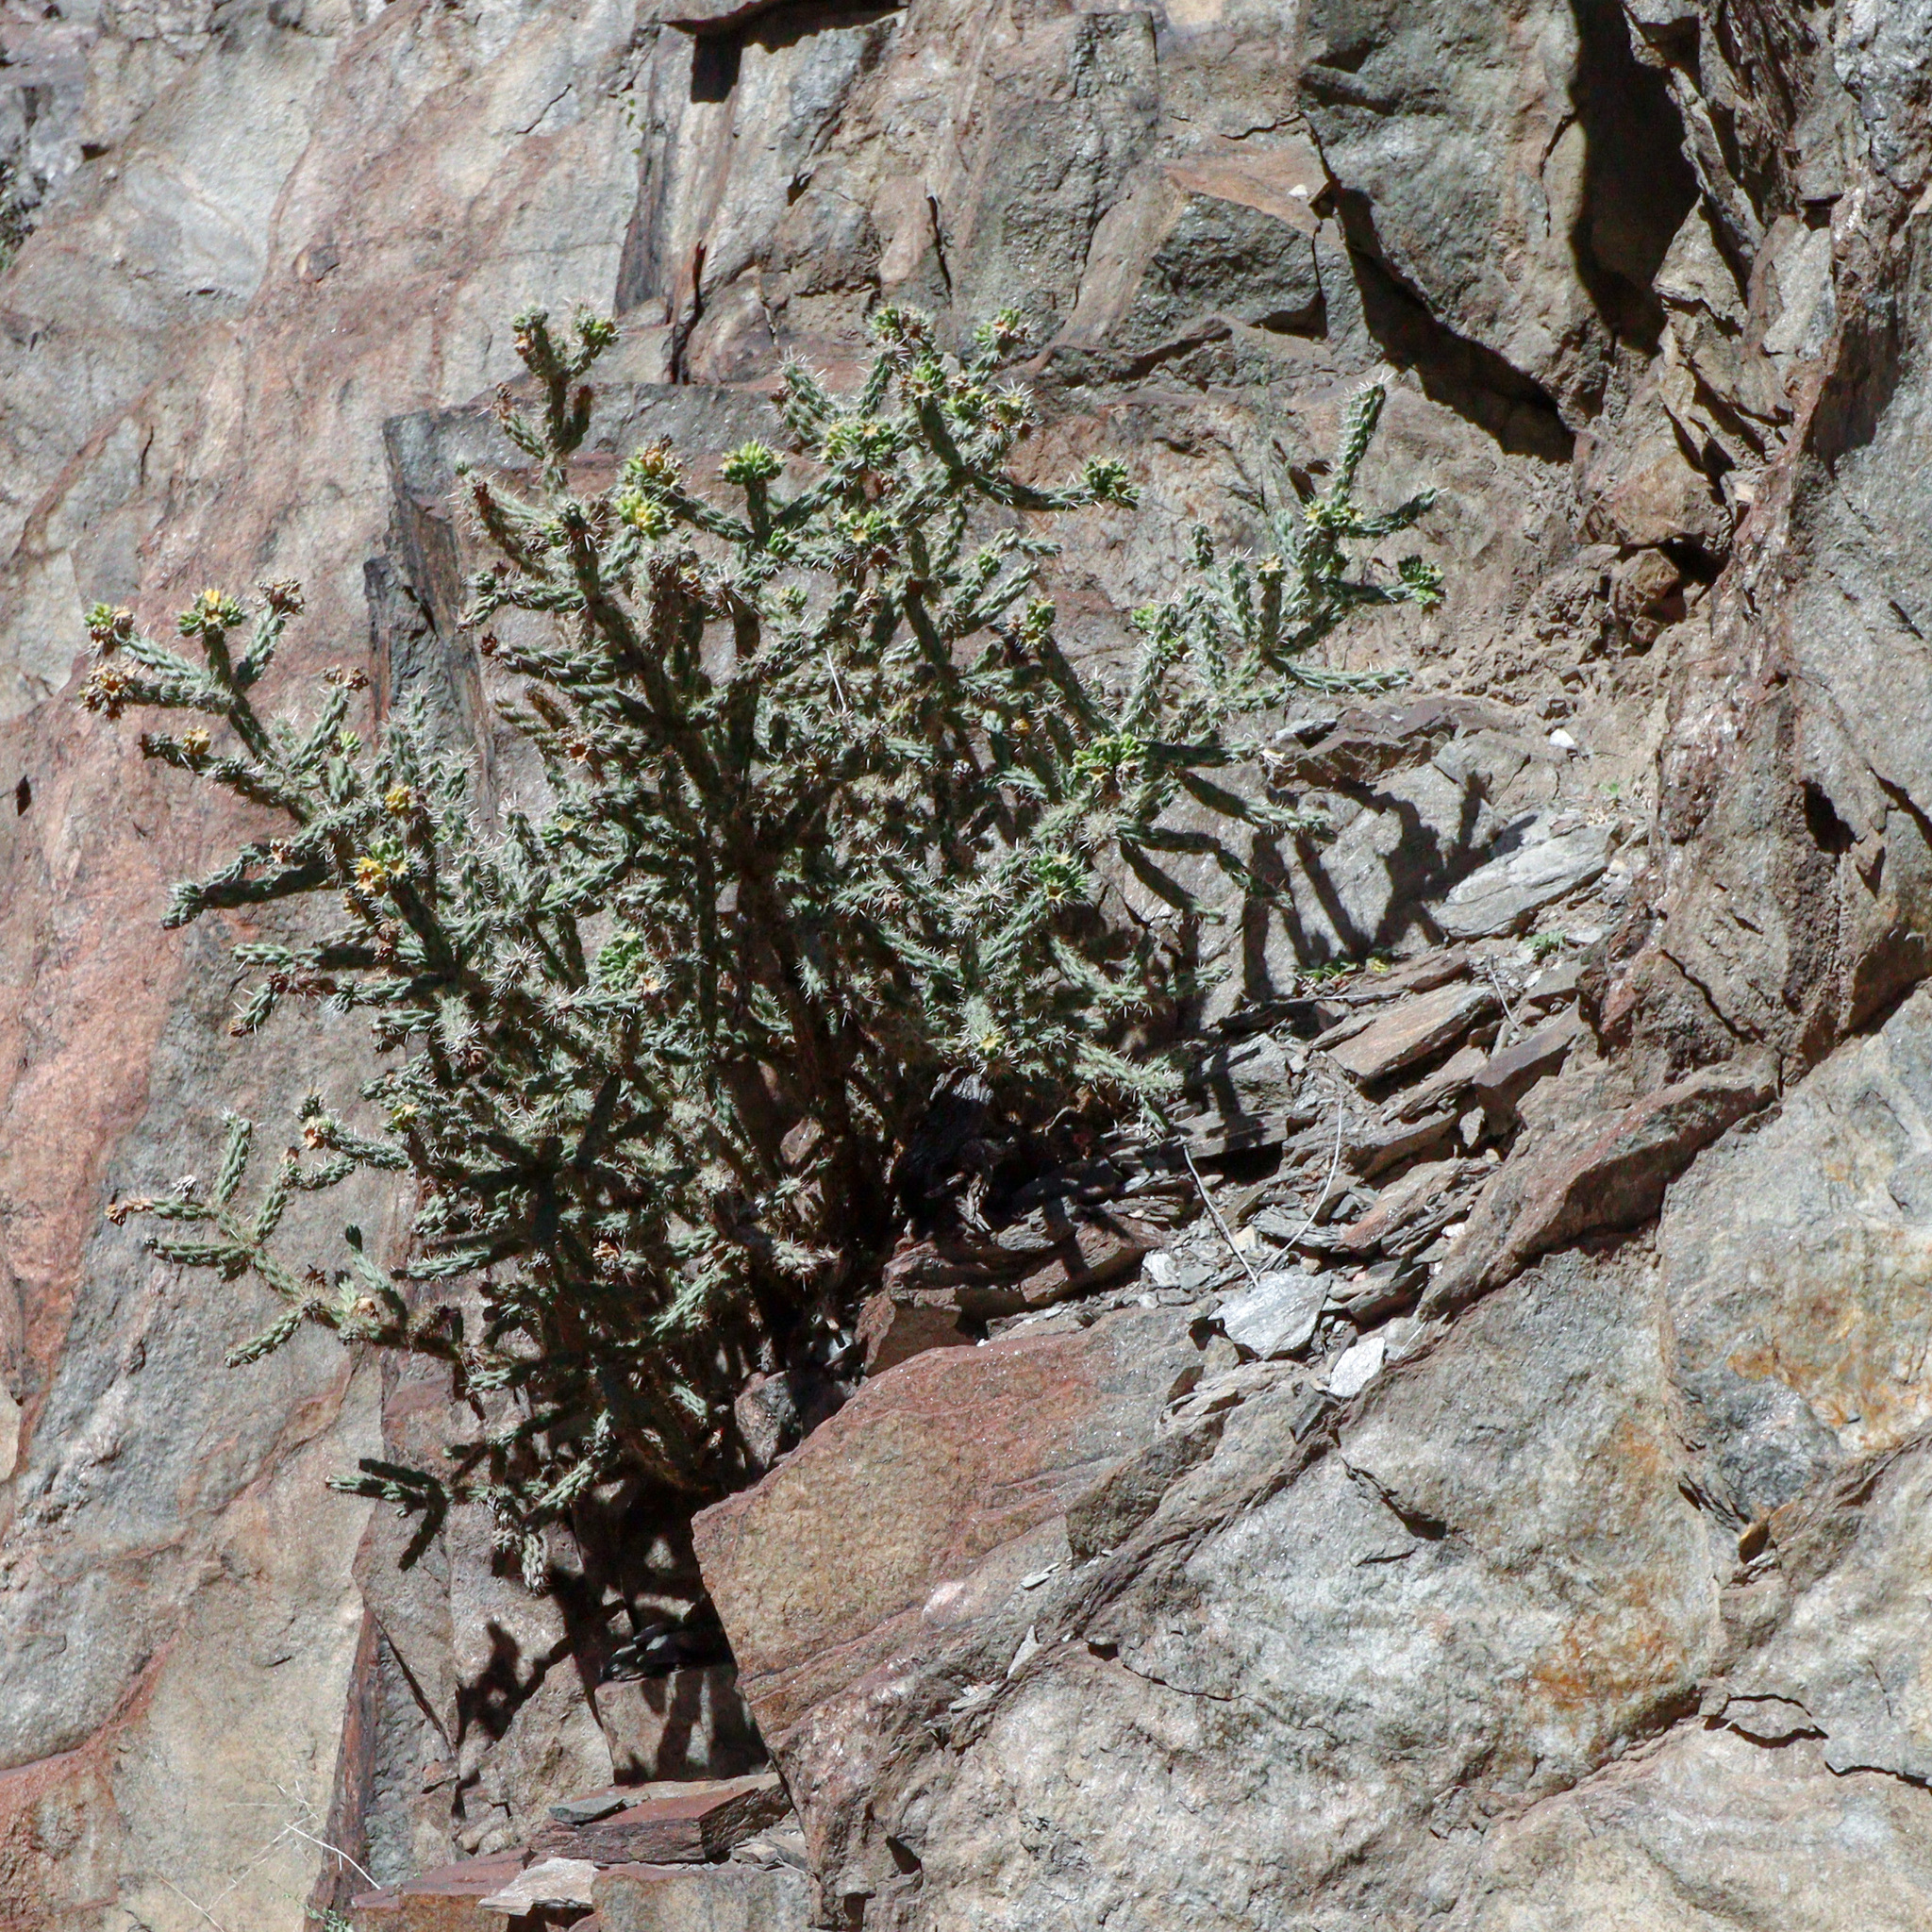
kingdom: Plantae
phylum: Tracheophyta
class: Magnoliopsida
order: Caryophyllales
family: Cactaceae
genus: Cylindropuntia
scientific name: Cylindropuntia imbricata
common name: Candelabrum cactus
